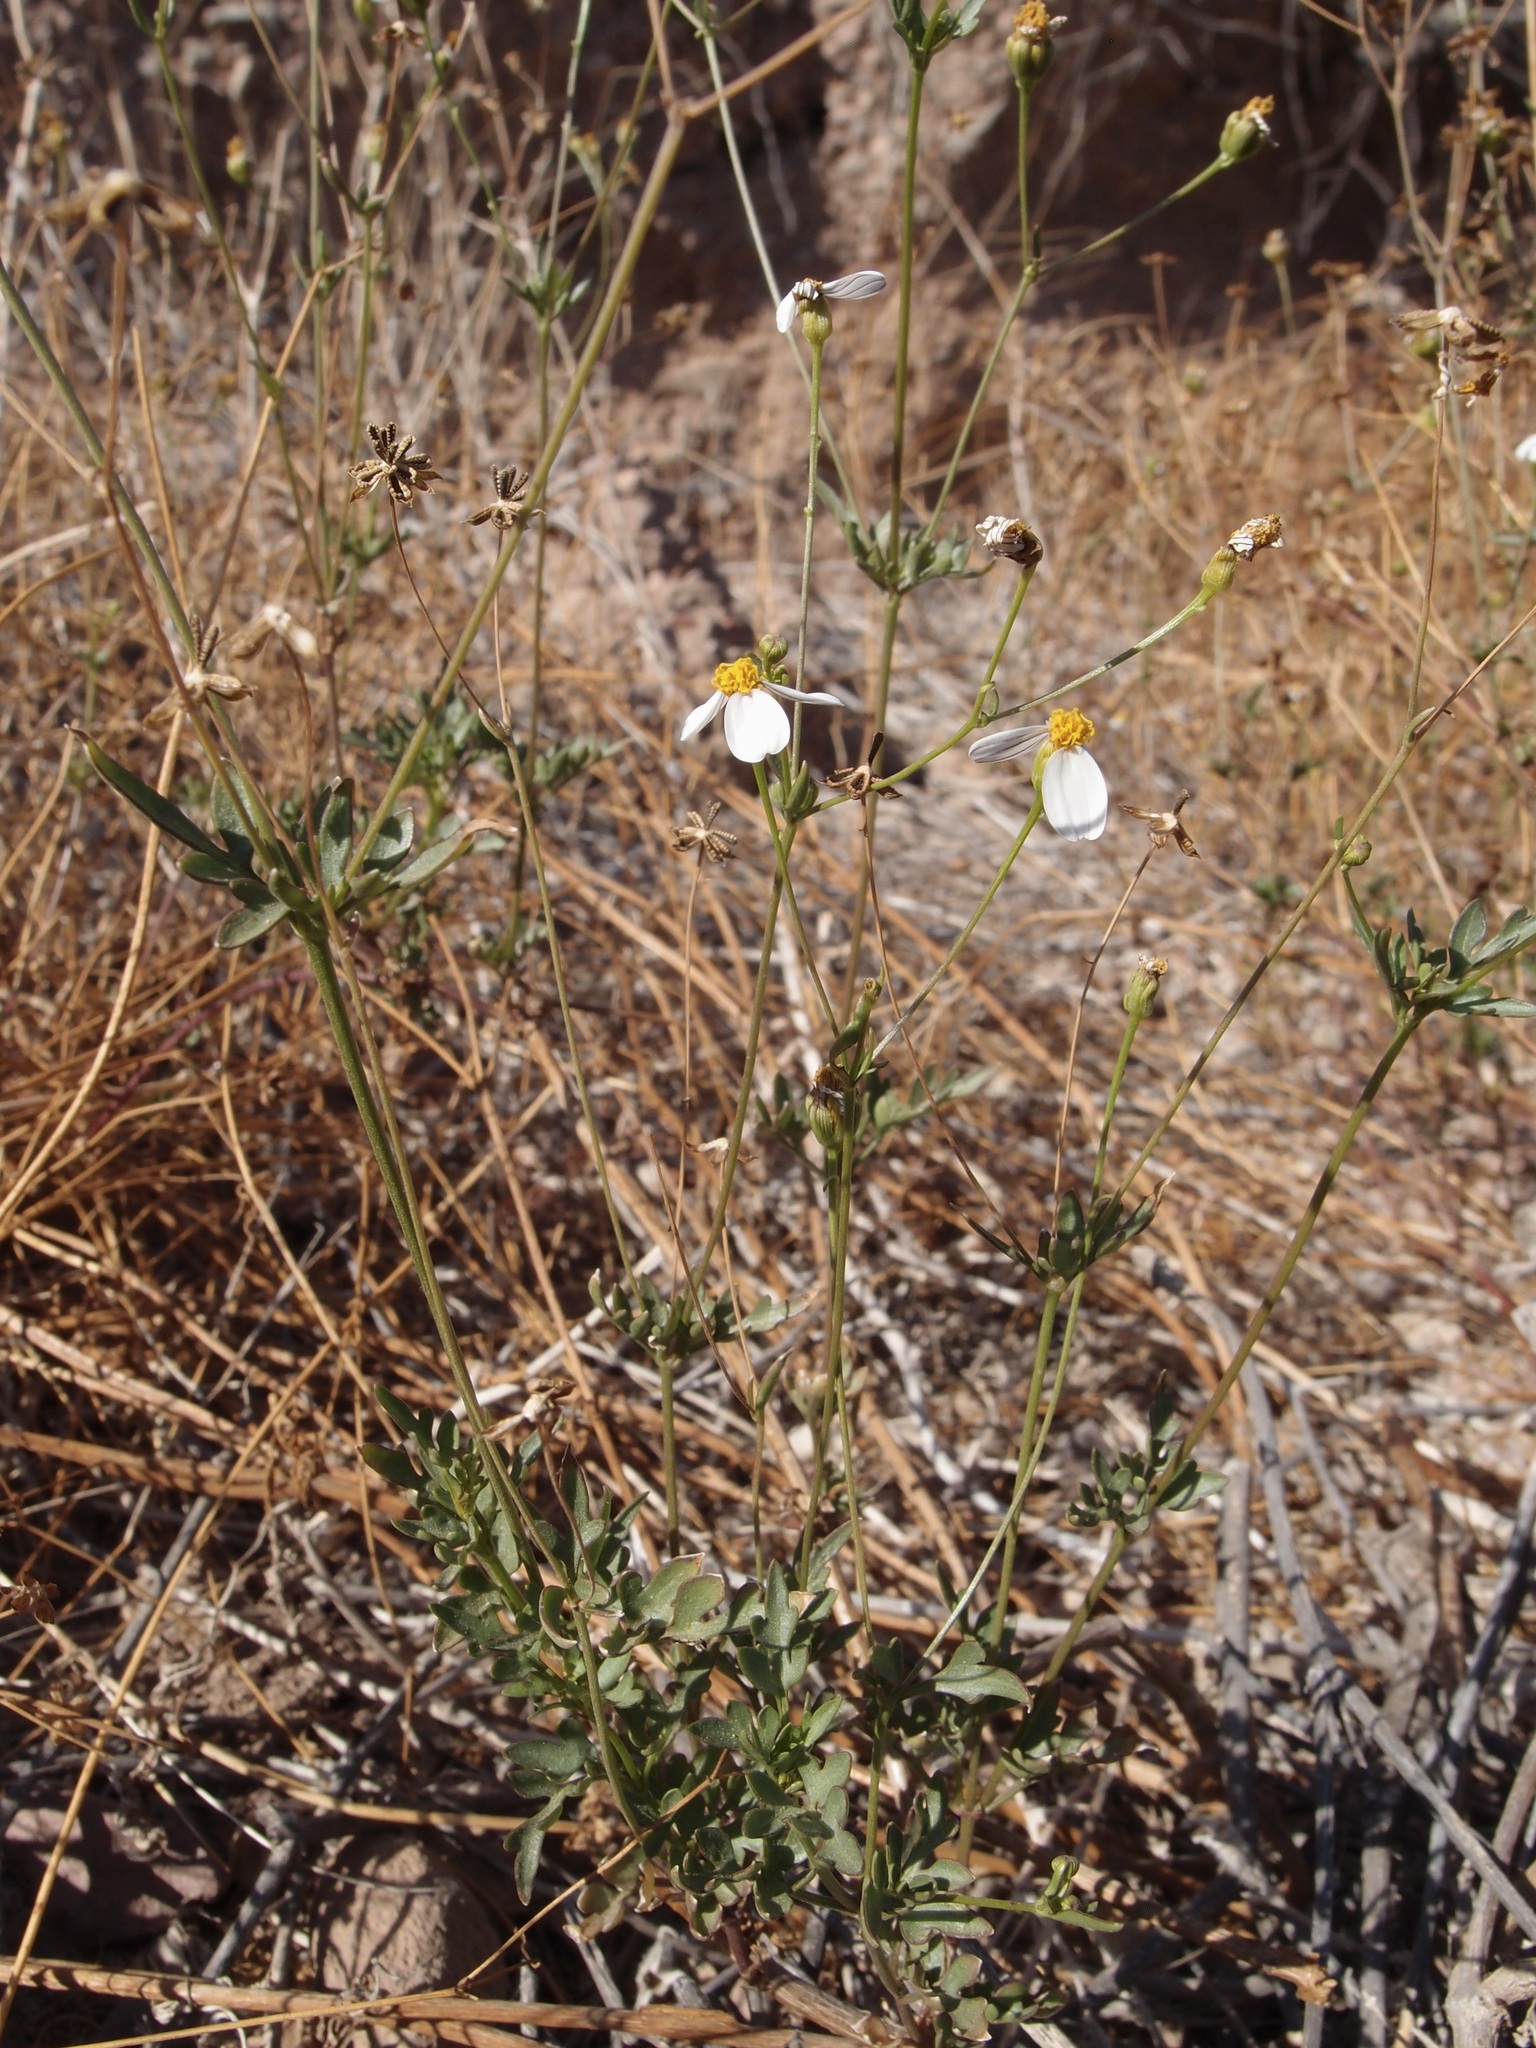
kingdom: Plantae
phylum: Tracheophyta
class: Magnoliopsida
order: Asterales
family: Asteraceae
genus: Coreocarpus
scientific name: Coreocarpus sonoranus
